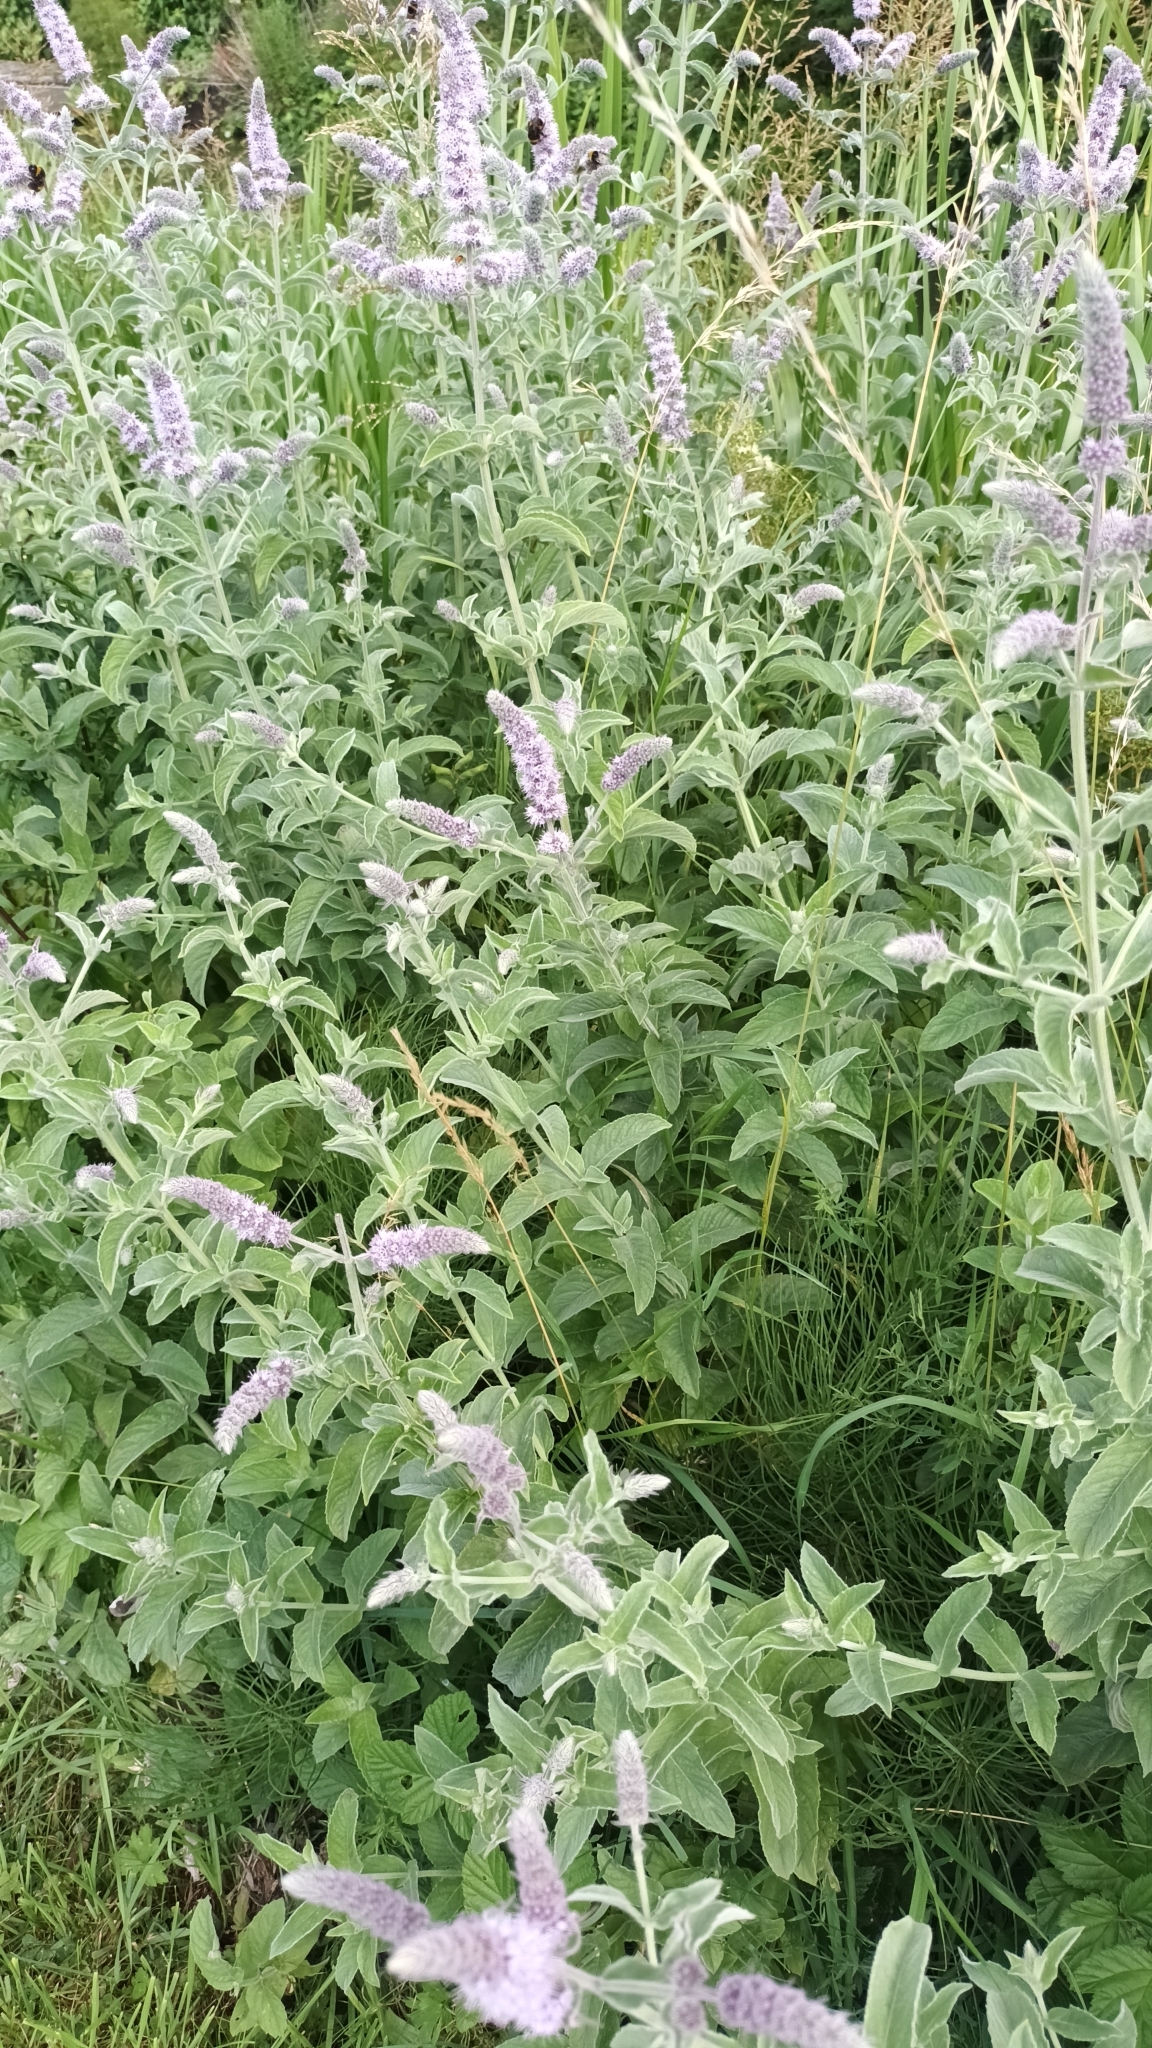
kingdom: Plantae
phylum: Tracheophyta
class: Magnoliopsida
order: Lamiales
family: Lamiaceae
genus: Mentha
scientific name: Mentha longifolia
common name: Horse mint
